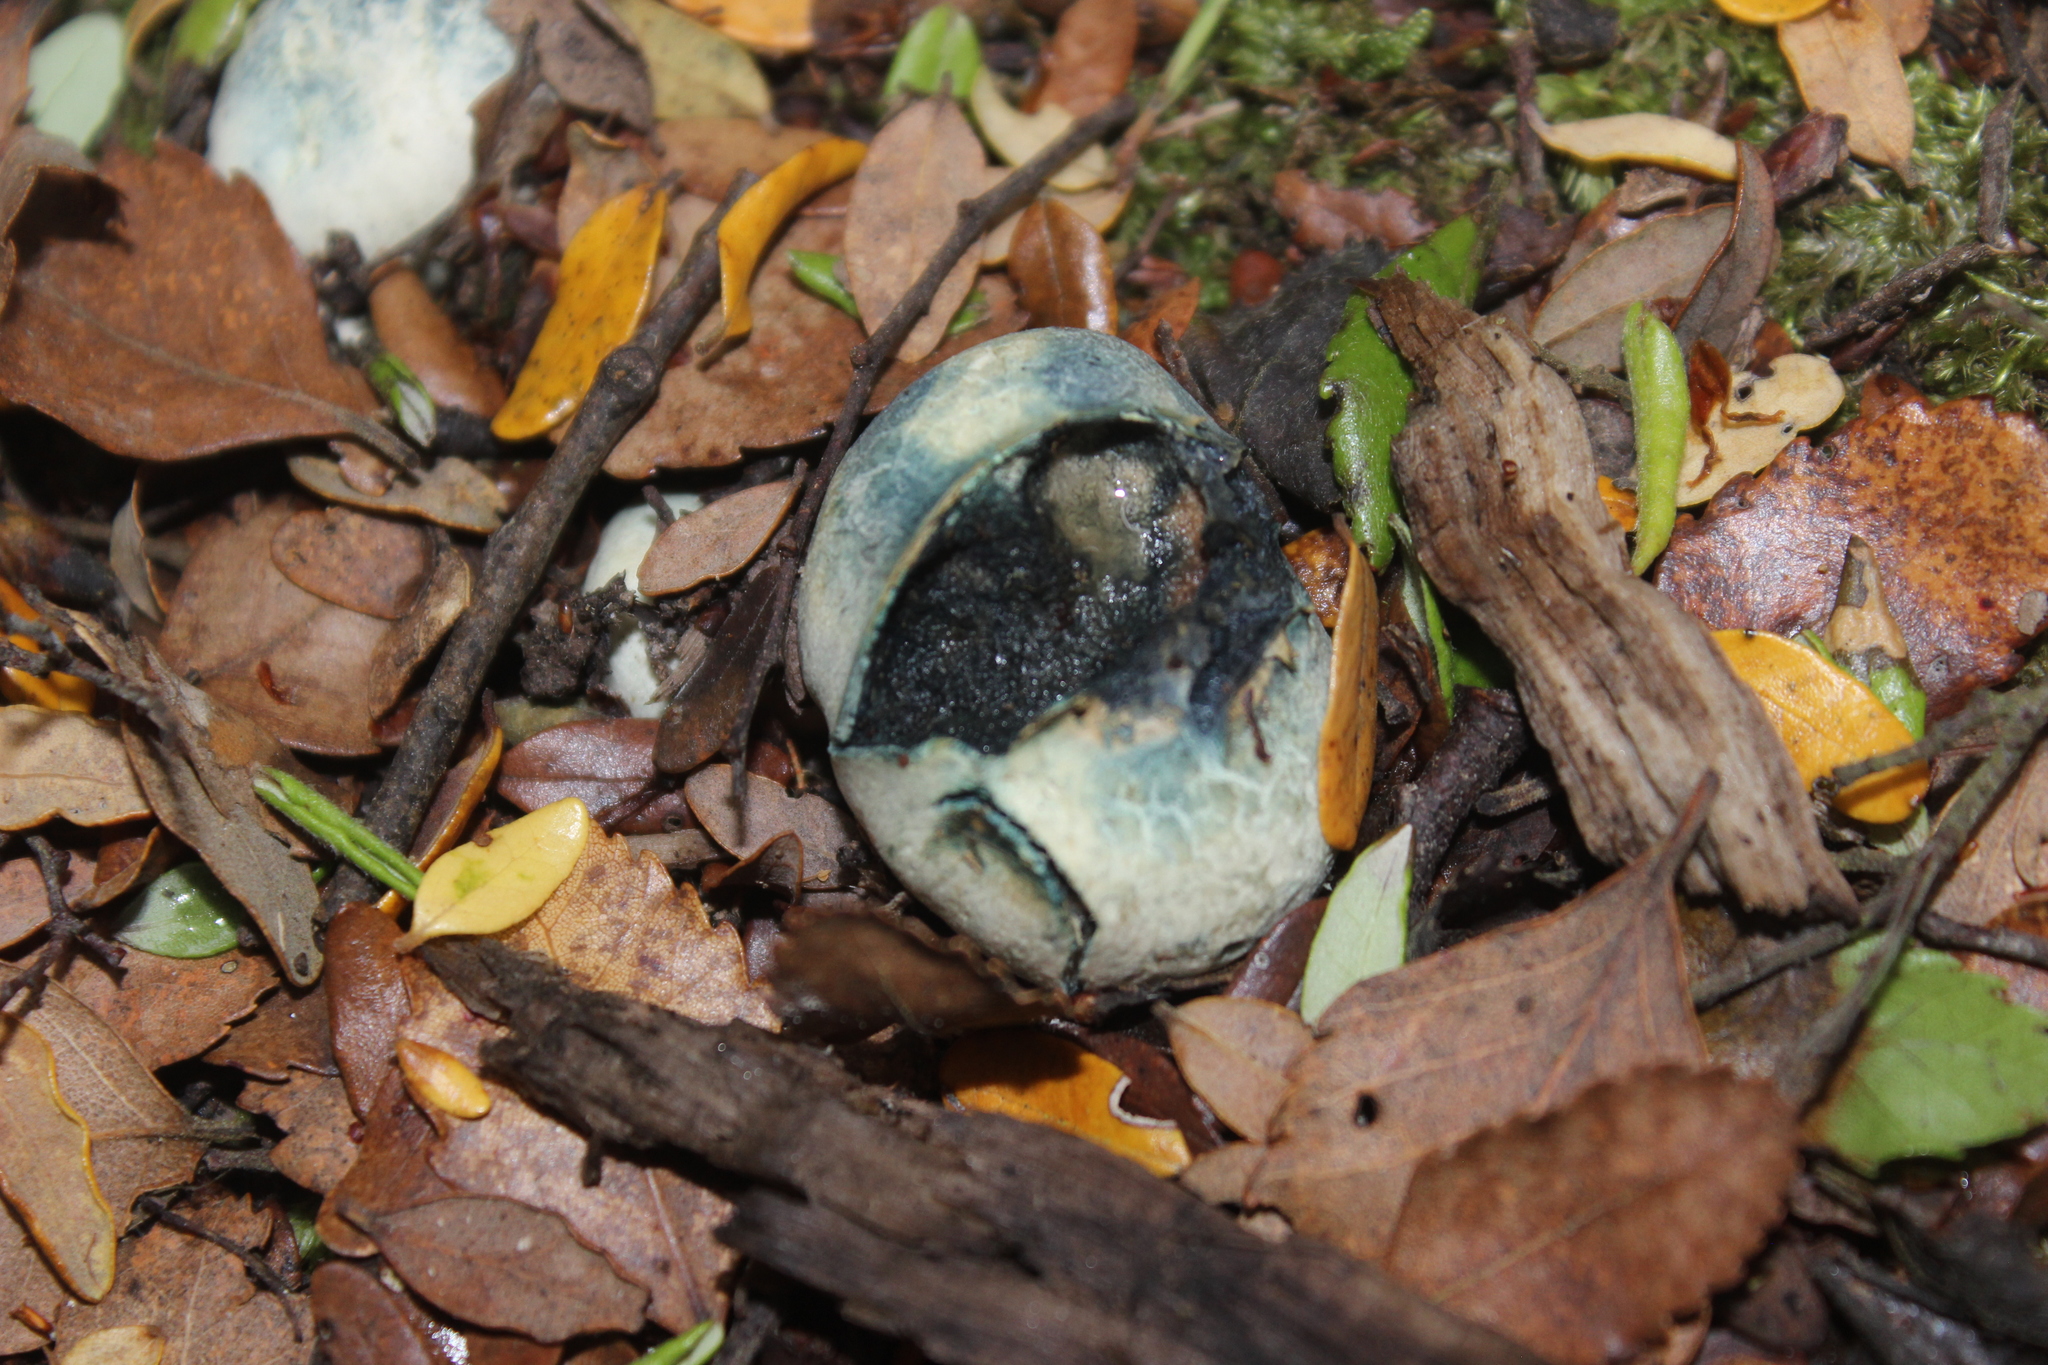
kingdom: Fungi
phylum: Basidiomycota
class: Agaricomycetes
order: Boletales
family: Boletaceae
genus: Leccinum
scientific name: Leccinum pachyderme
